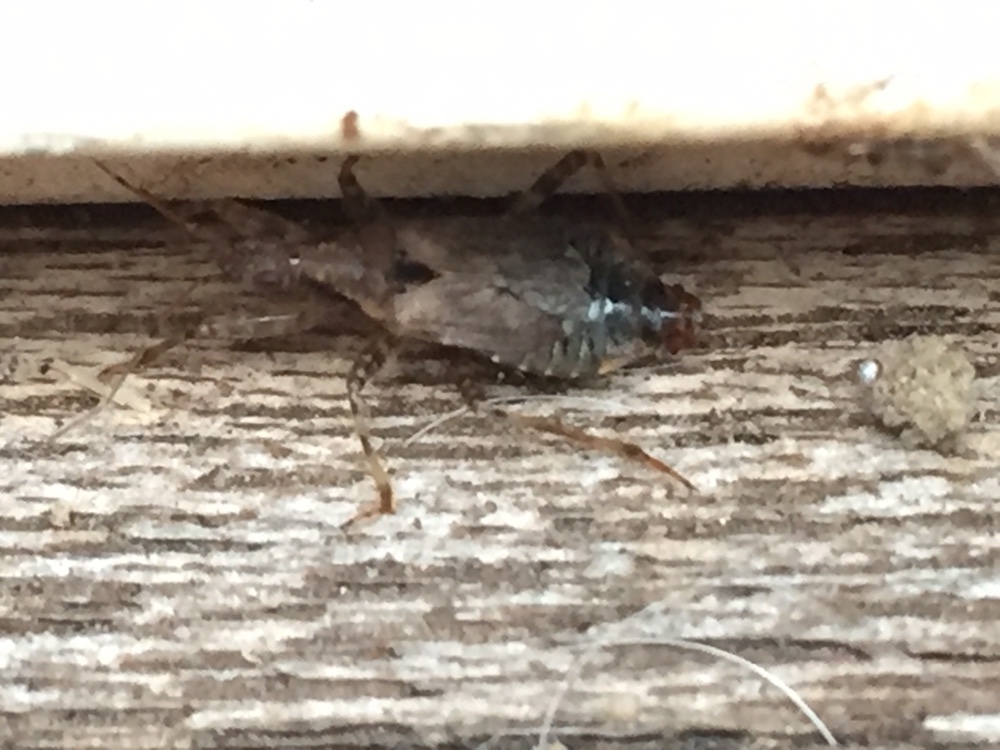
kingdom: Animalia
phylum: Arthropoda
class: Insecta
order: Hemiptera
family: Nabidae
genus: Himacerus
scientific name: Himacerus mirmicoides
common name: Ant damsel bug
